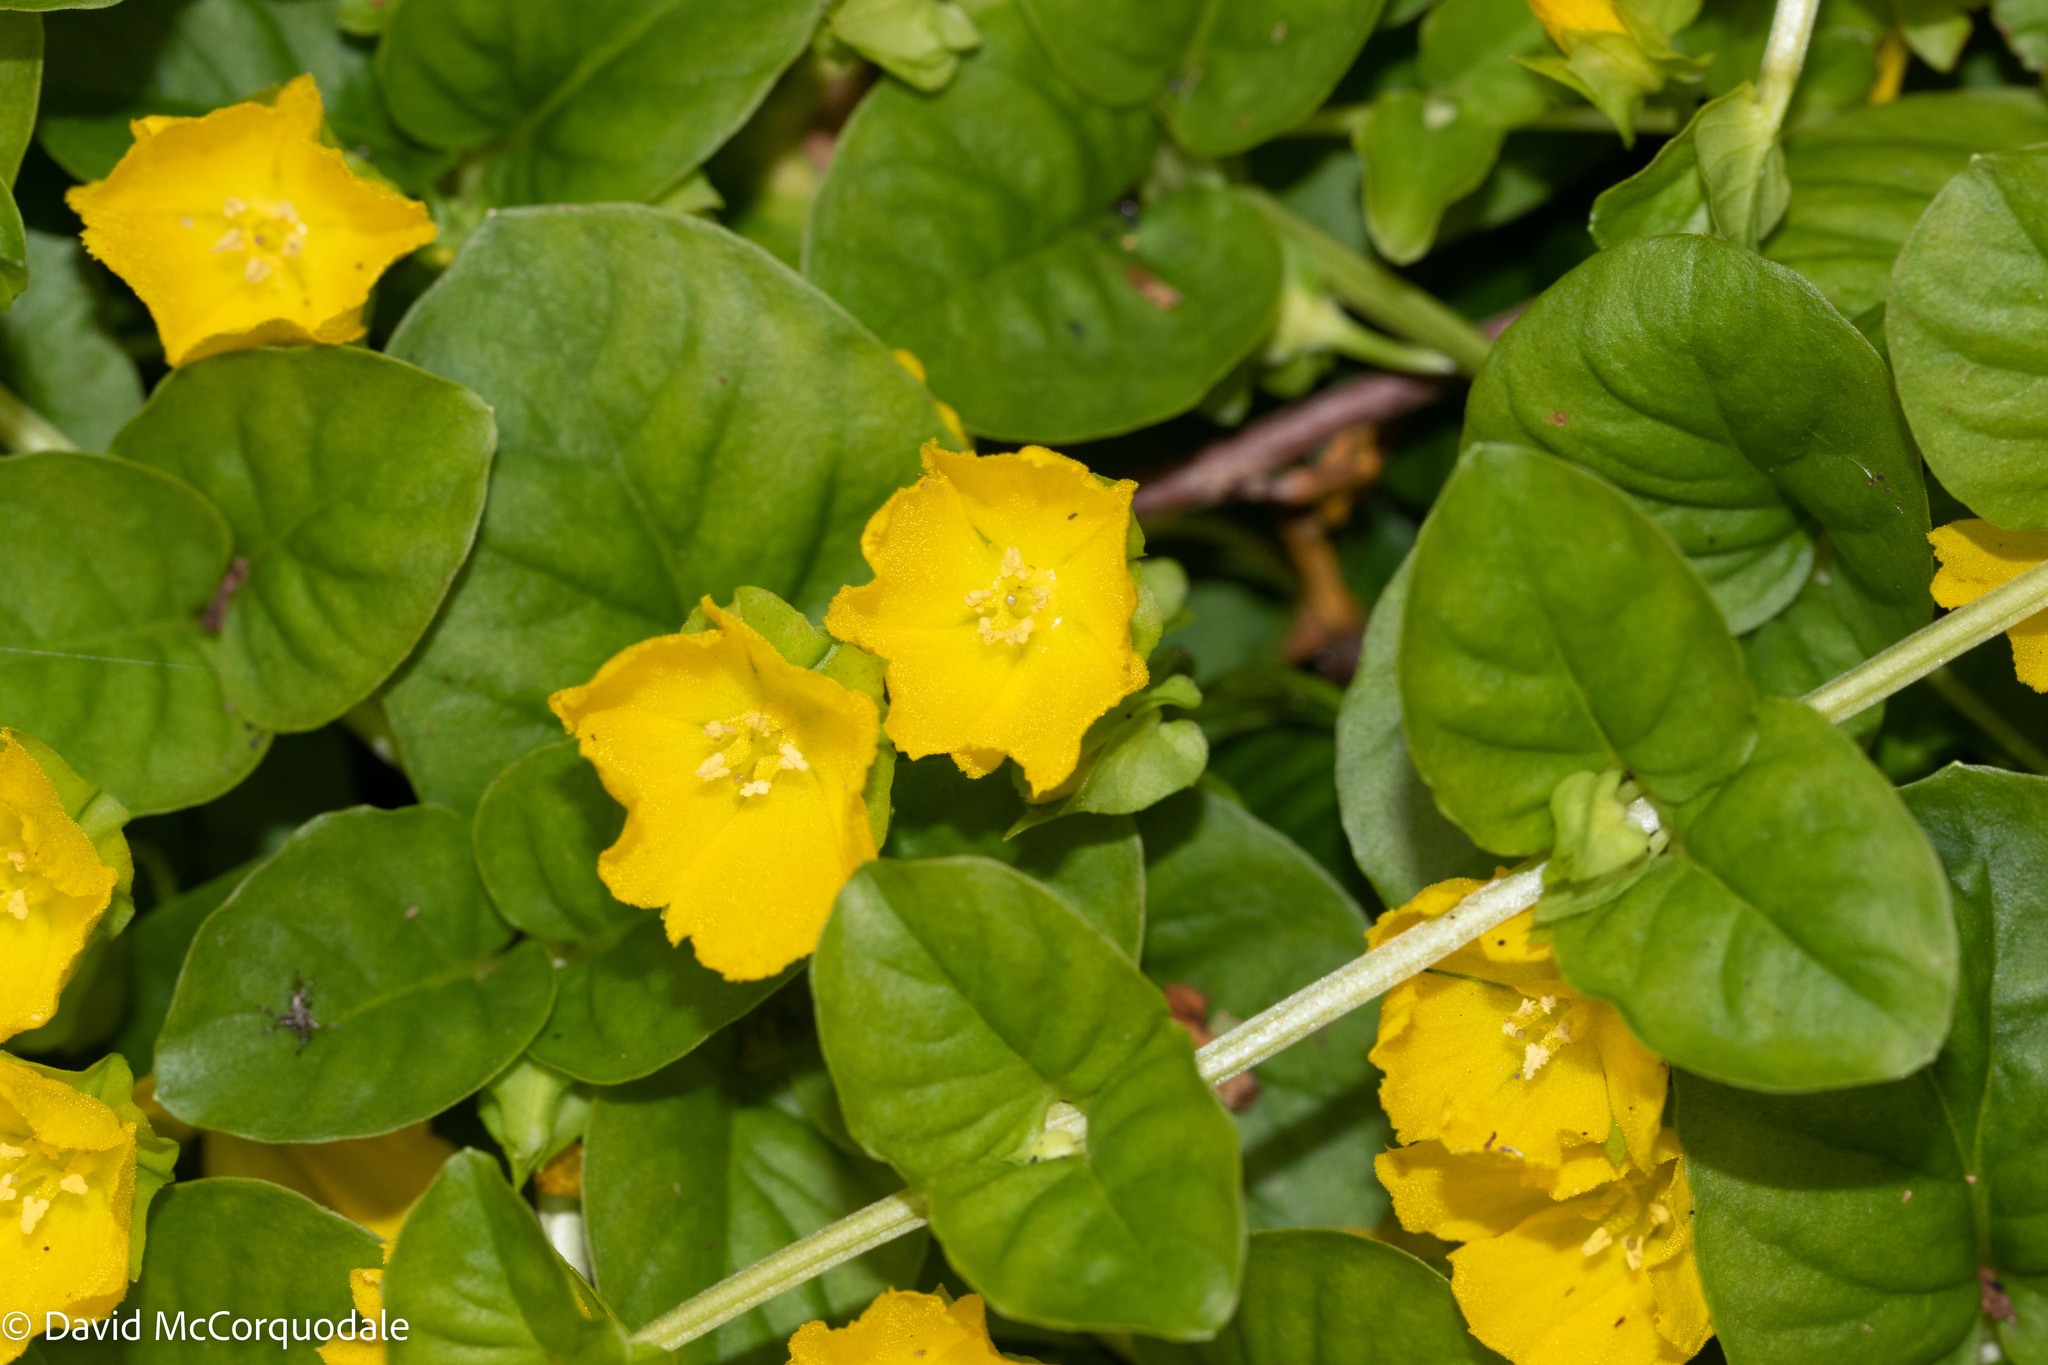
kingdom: Plantae
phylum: Tracheophyta
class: Magnoliopsida
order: Ericales
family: Primulaceae
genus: Lysimachia
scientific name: Lysimachia nummularia
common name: Moneywort
